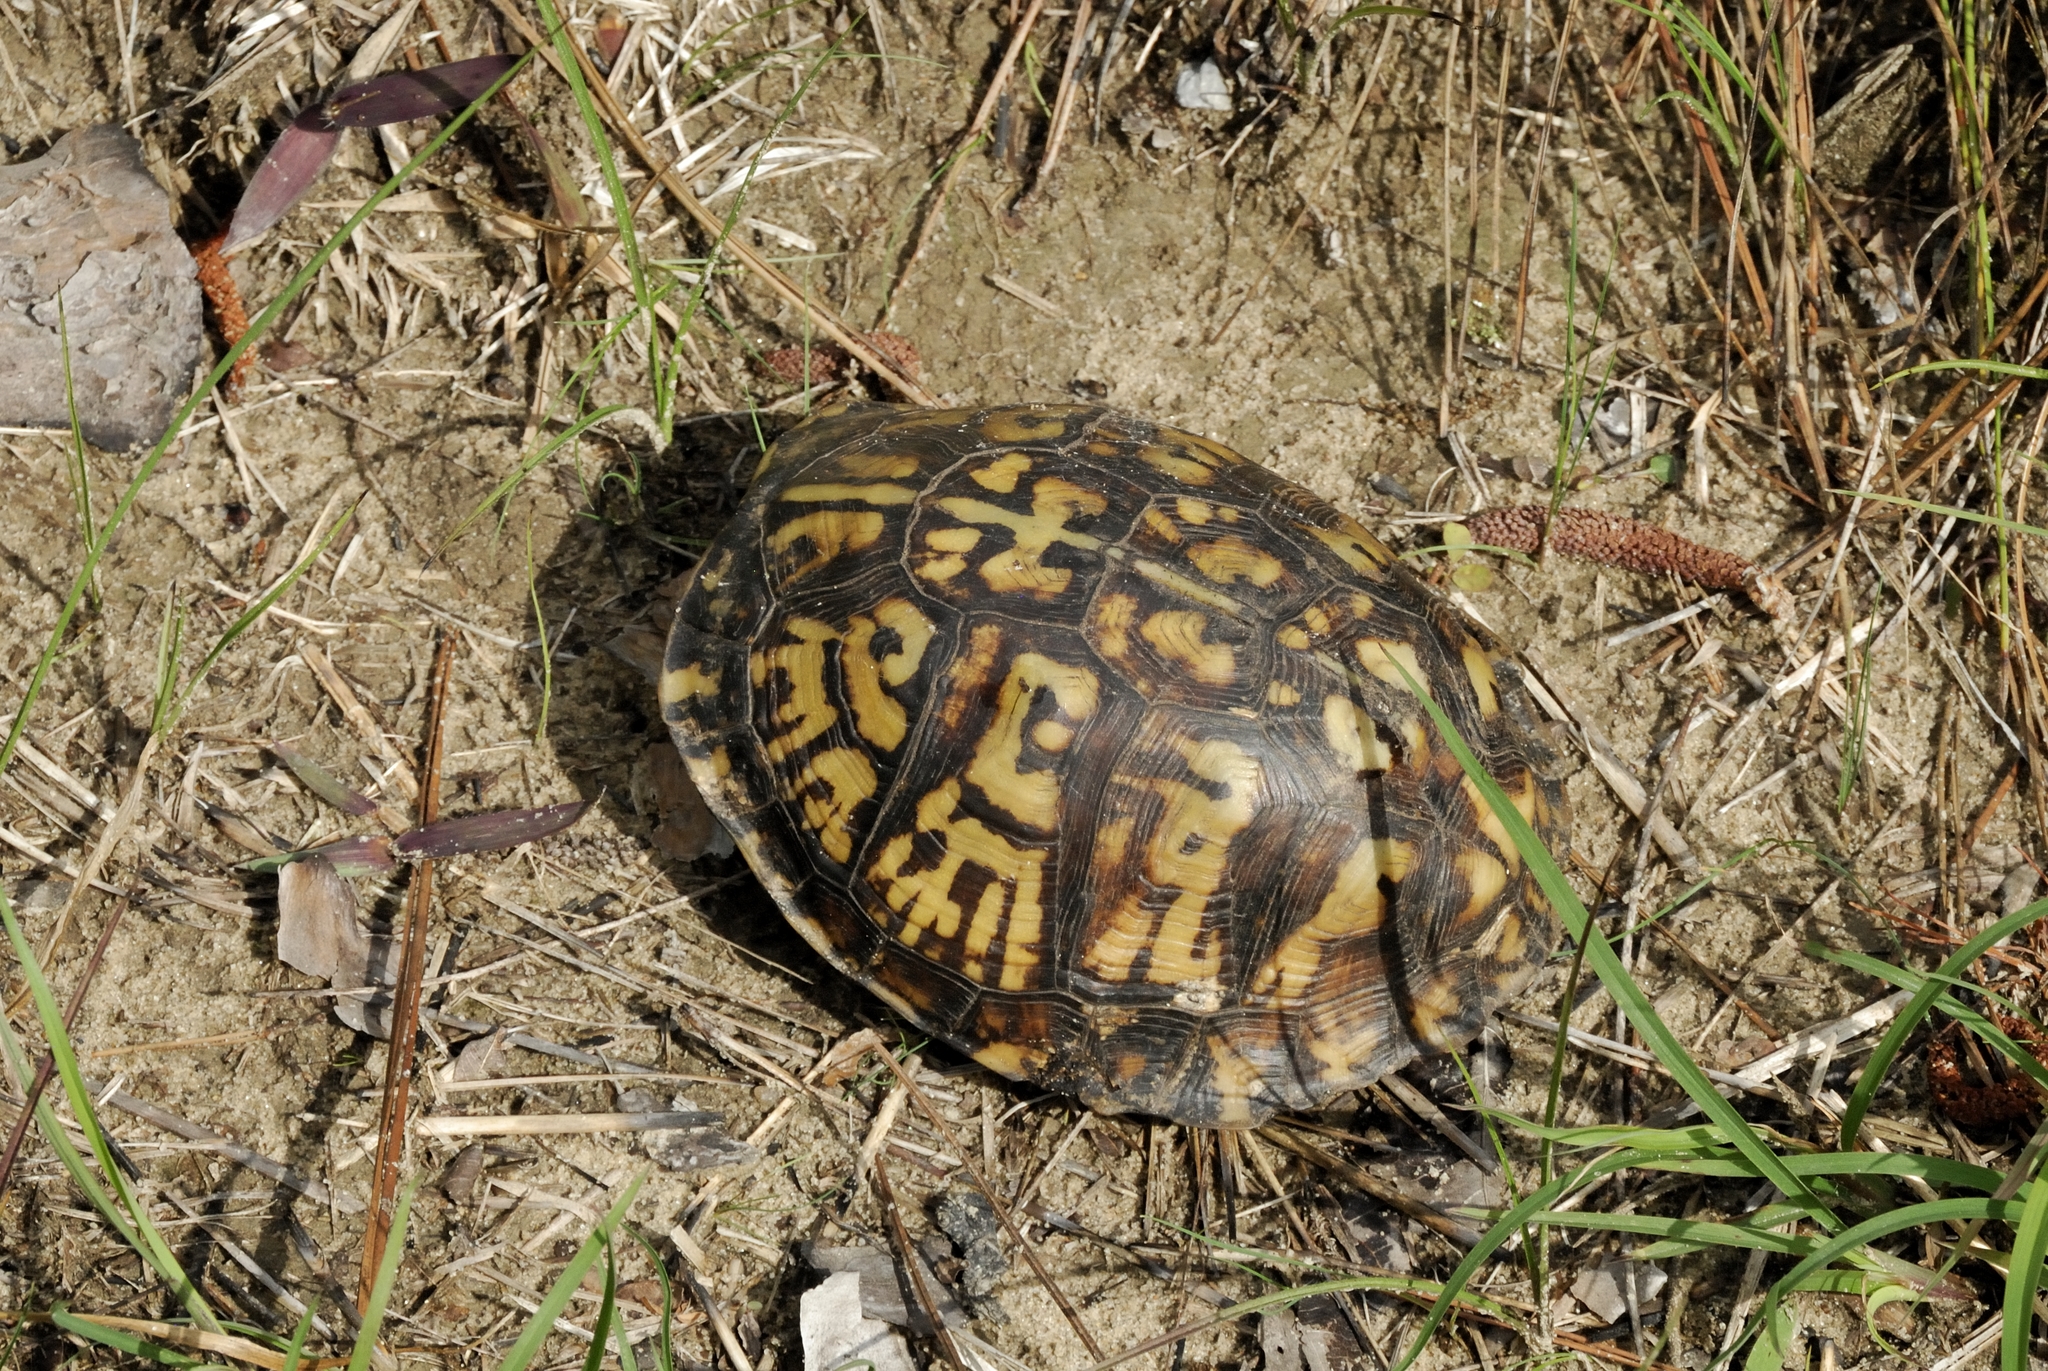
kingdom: Animalia
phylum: Chordata
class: Testudines
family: Emydidae
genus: Terrapene
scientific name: Terrapene carolina
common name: Common box turtle
